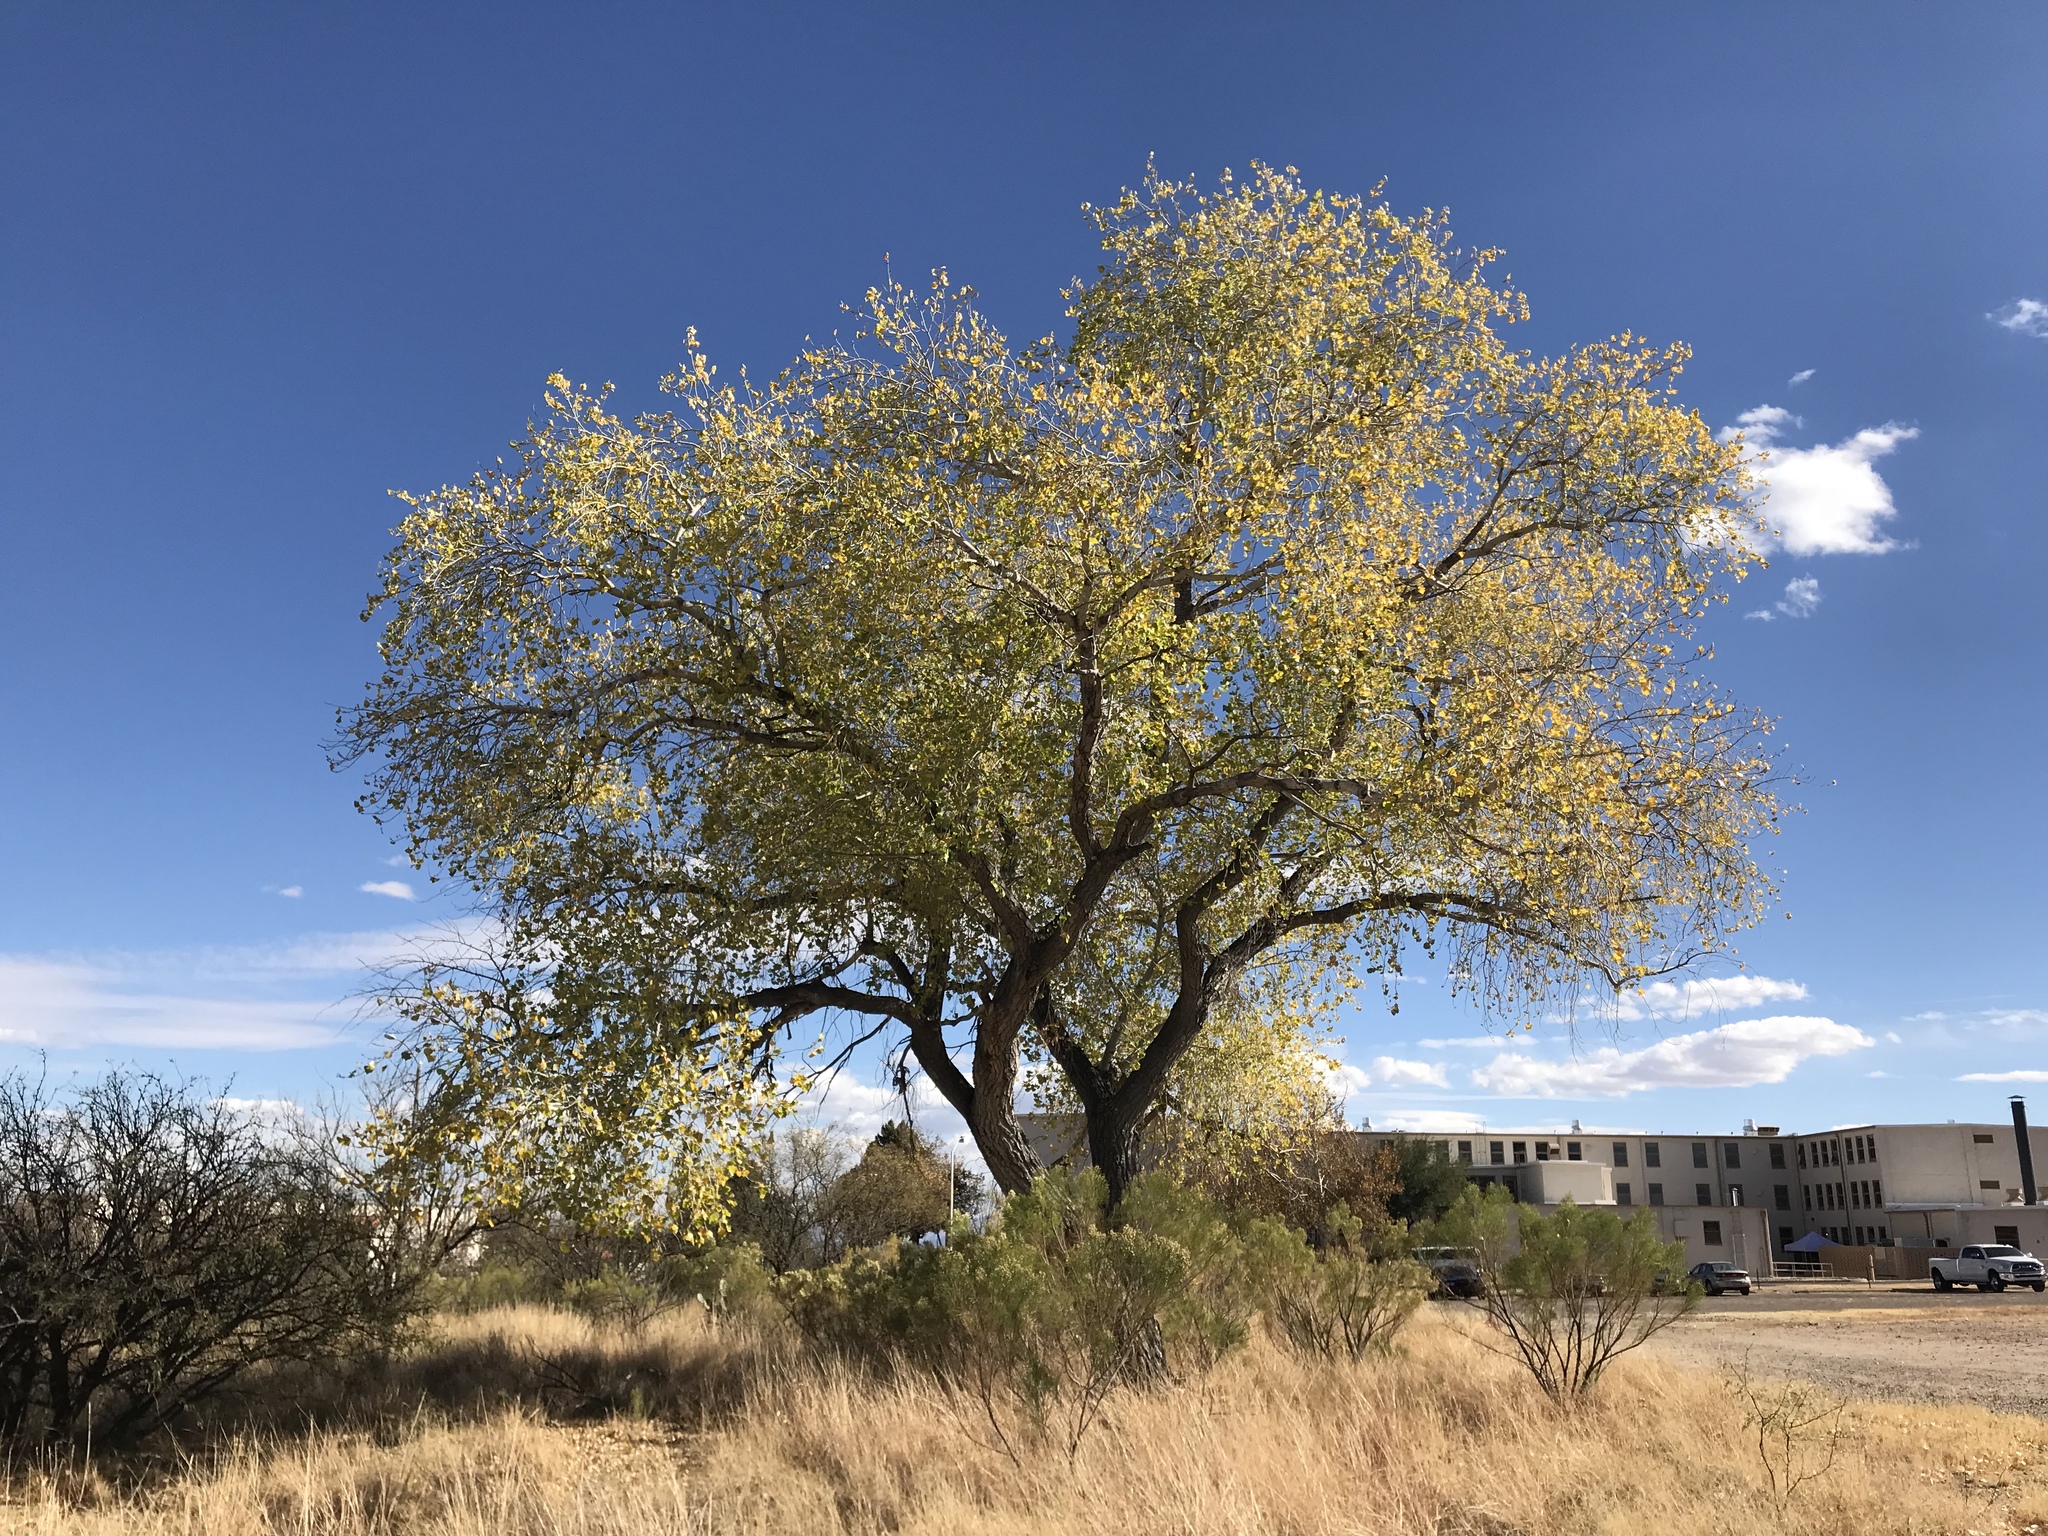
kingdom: Plantae
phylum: Tracheophyta
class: Magnoliopsida
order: Malpighiales
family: Salicaceae
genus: Populus
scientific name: Populus fremontii
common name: Fremont's cottonwood
